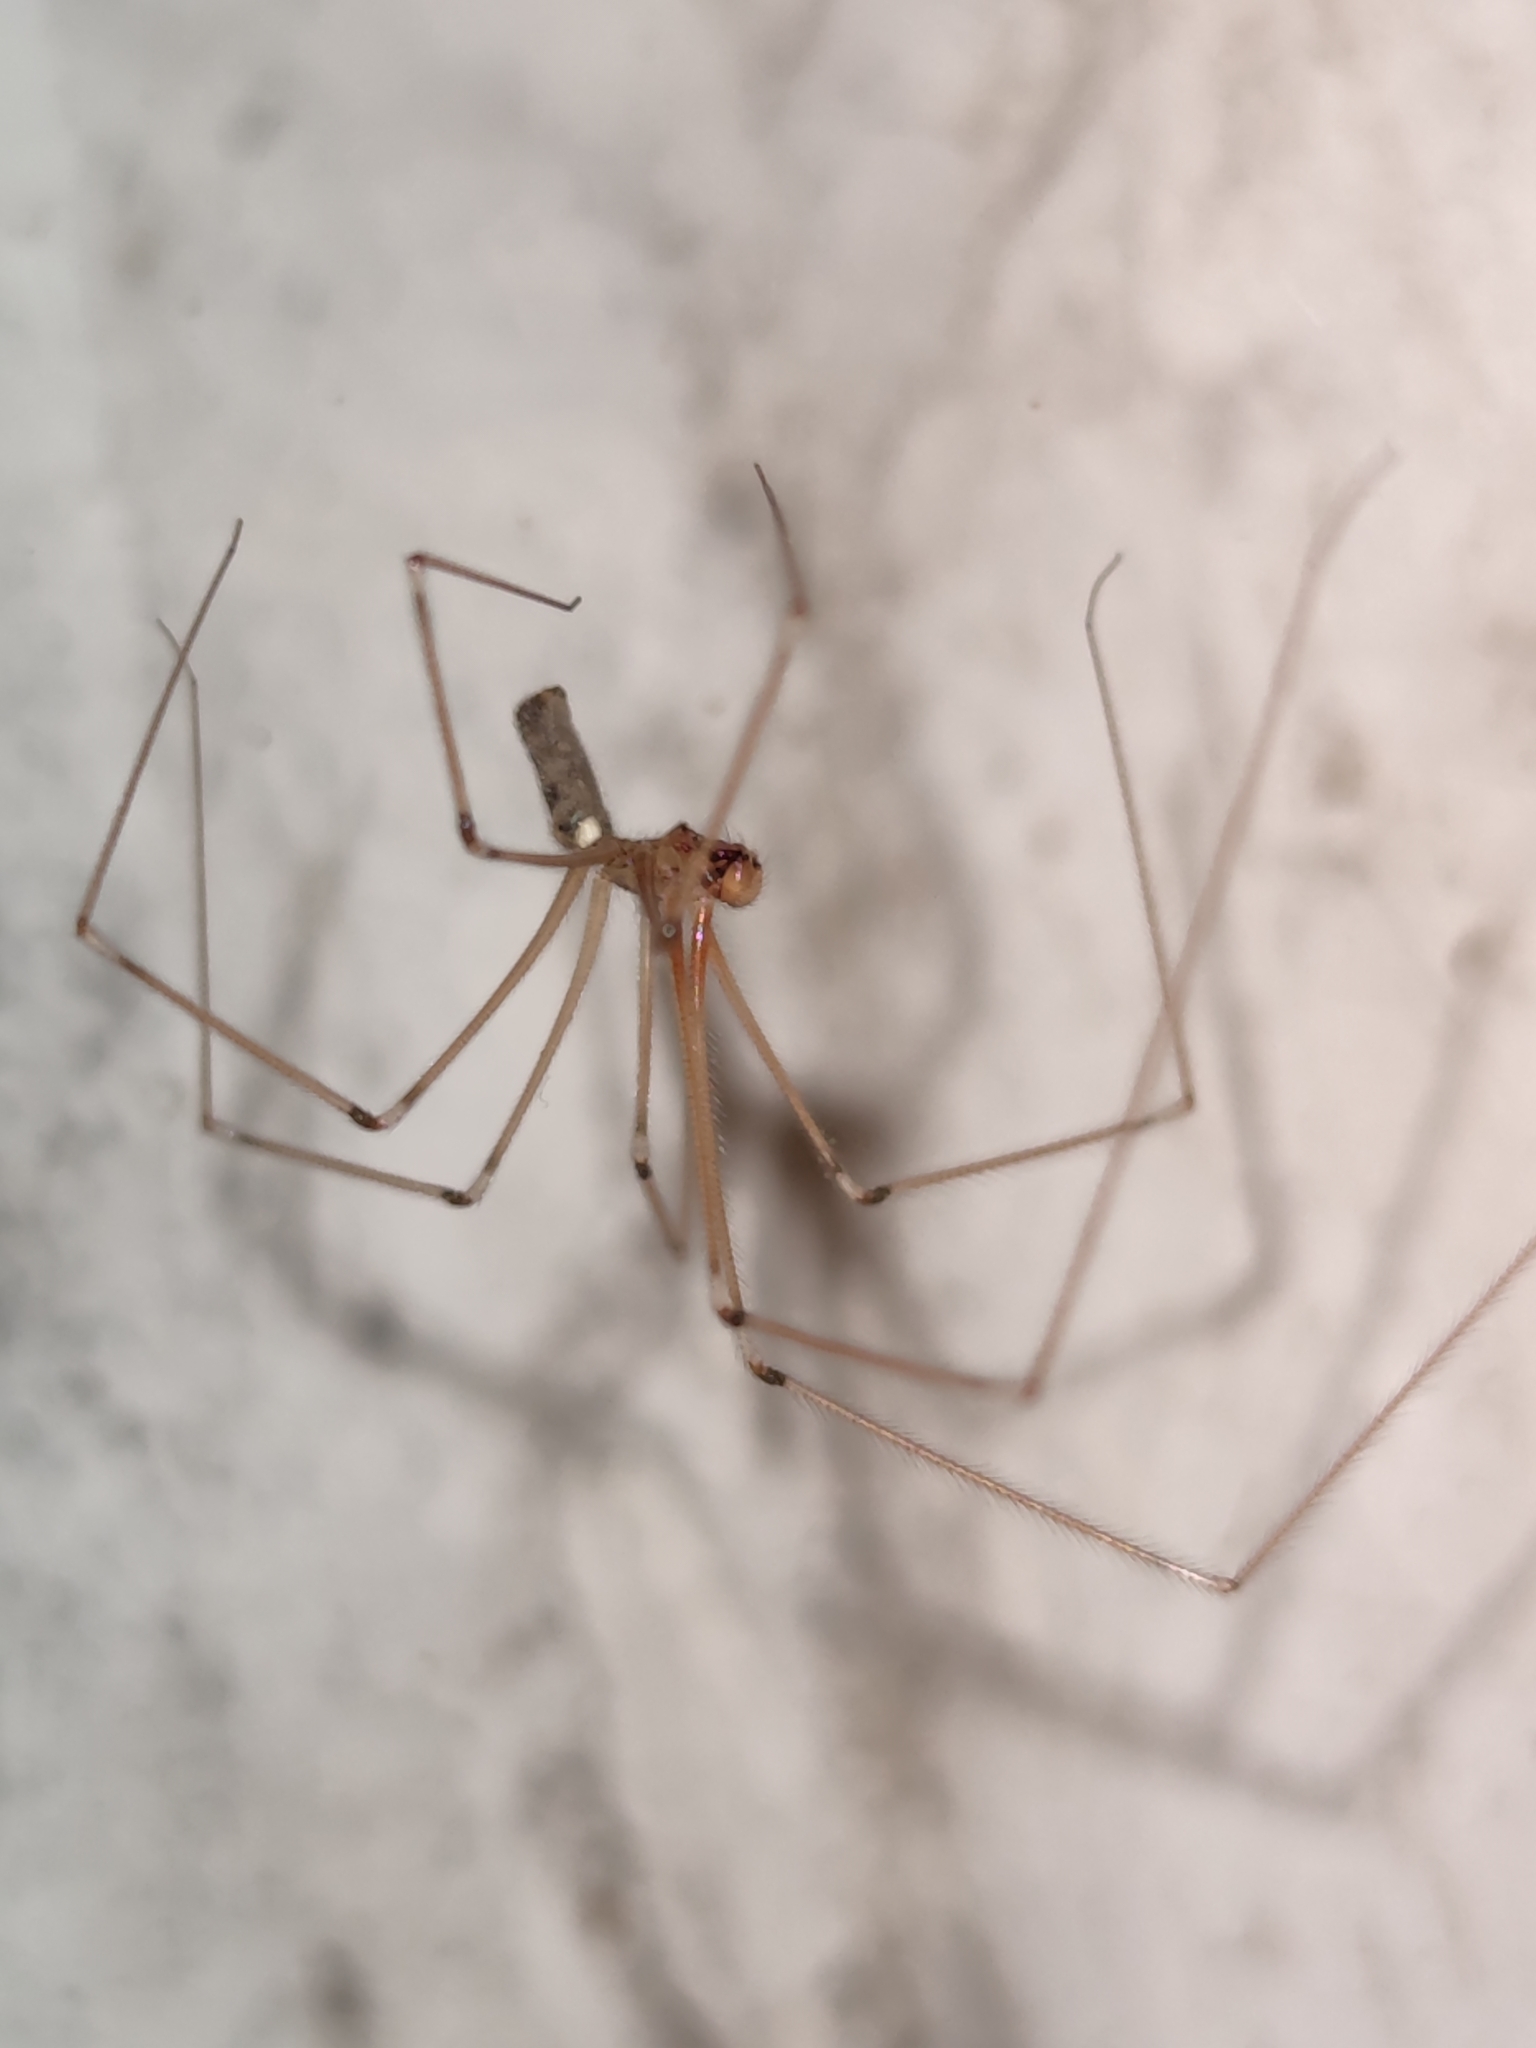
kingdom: Animalia
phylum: Arthropoda
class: Arachnida
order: Araneae
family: Pholcidae
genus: Pholcus
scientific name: Pholcus phalangioides
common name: Longbodied cellar spider
